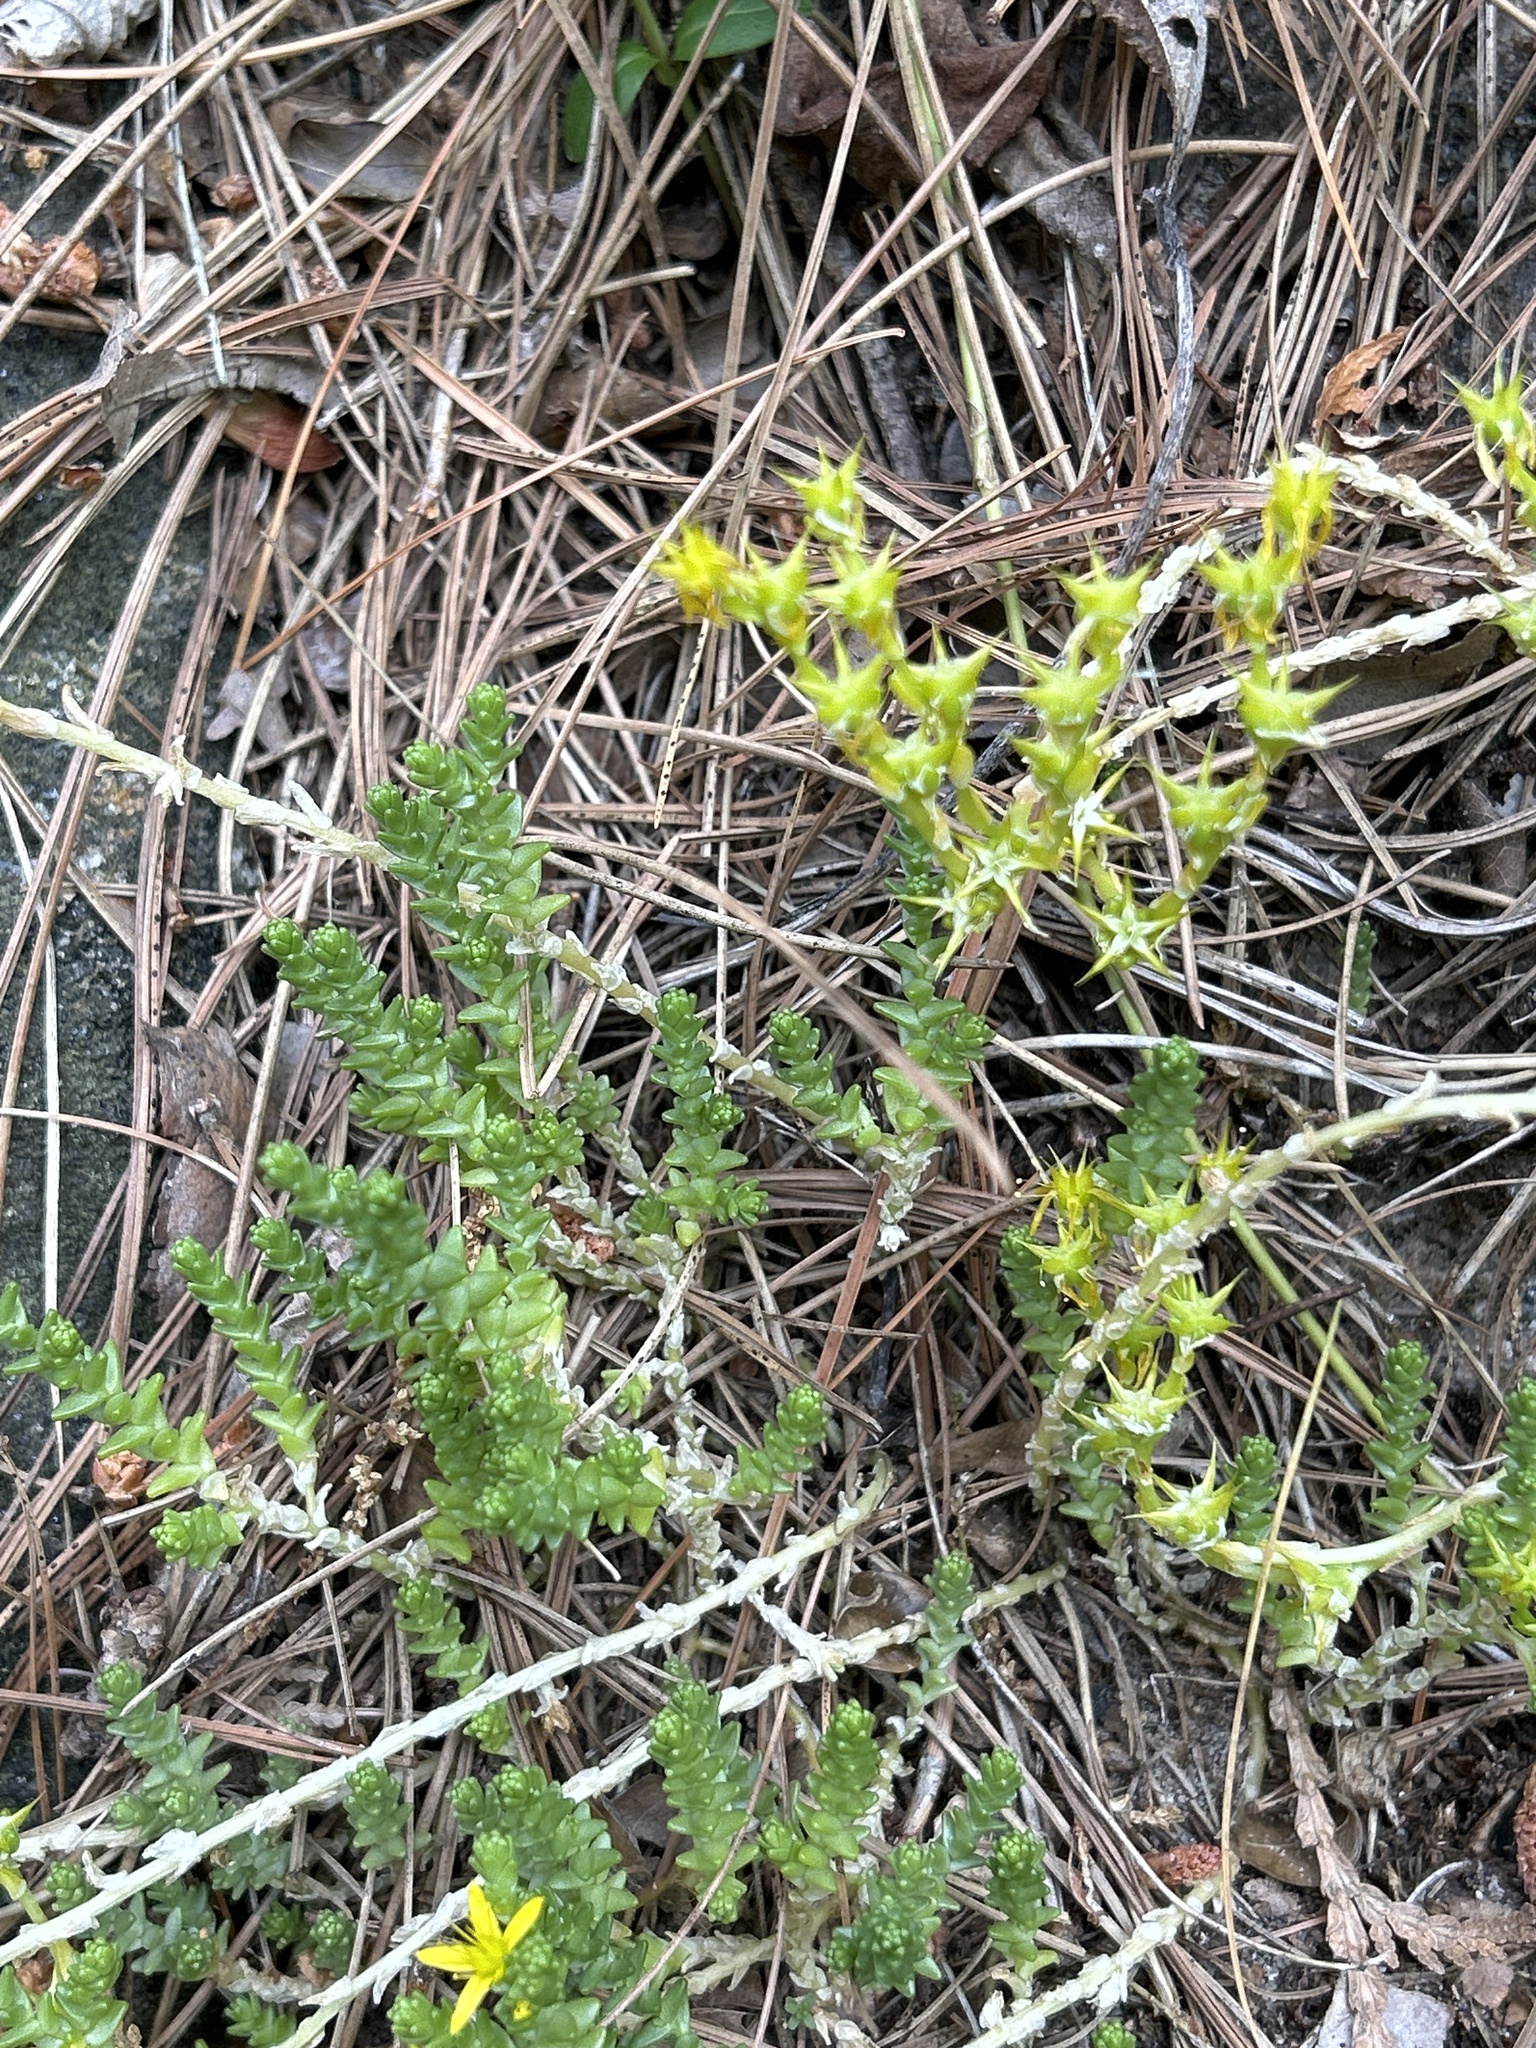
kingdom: Plantae
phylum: Tracheophyta
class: Magnoliopsida
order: Saxifragales
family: Crassulaceae
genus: Sedum
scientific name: Sedum acre
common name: Biting stonecrop
